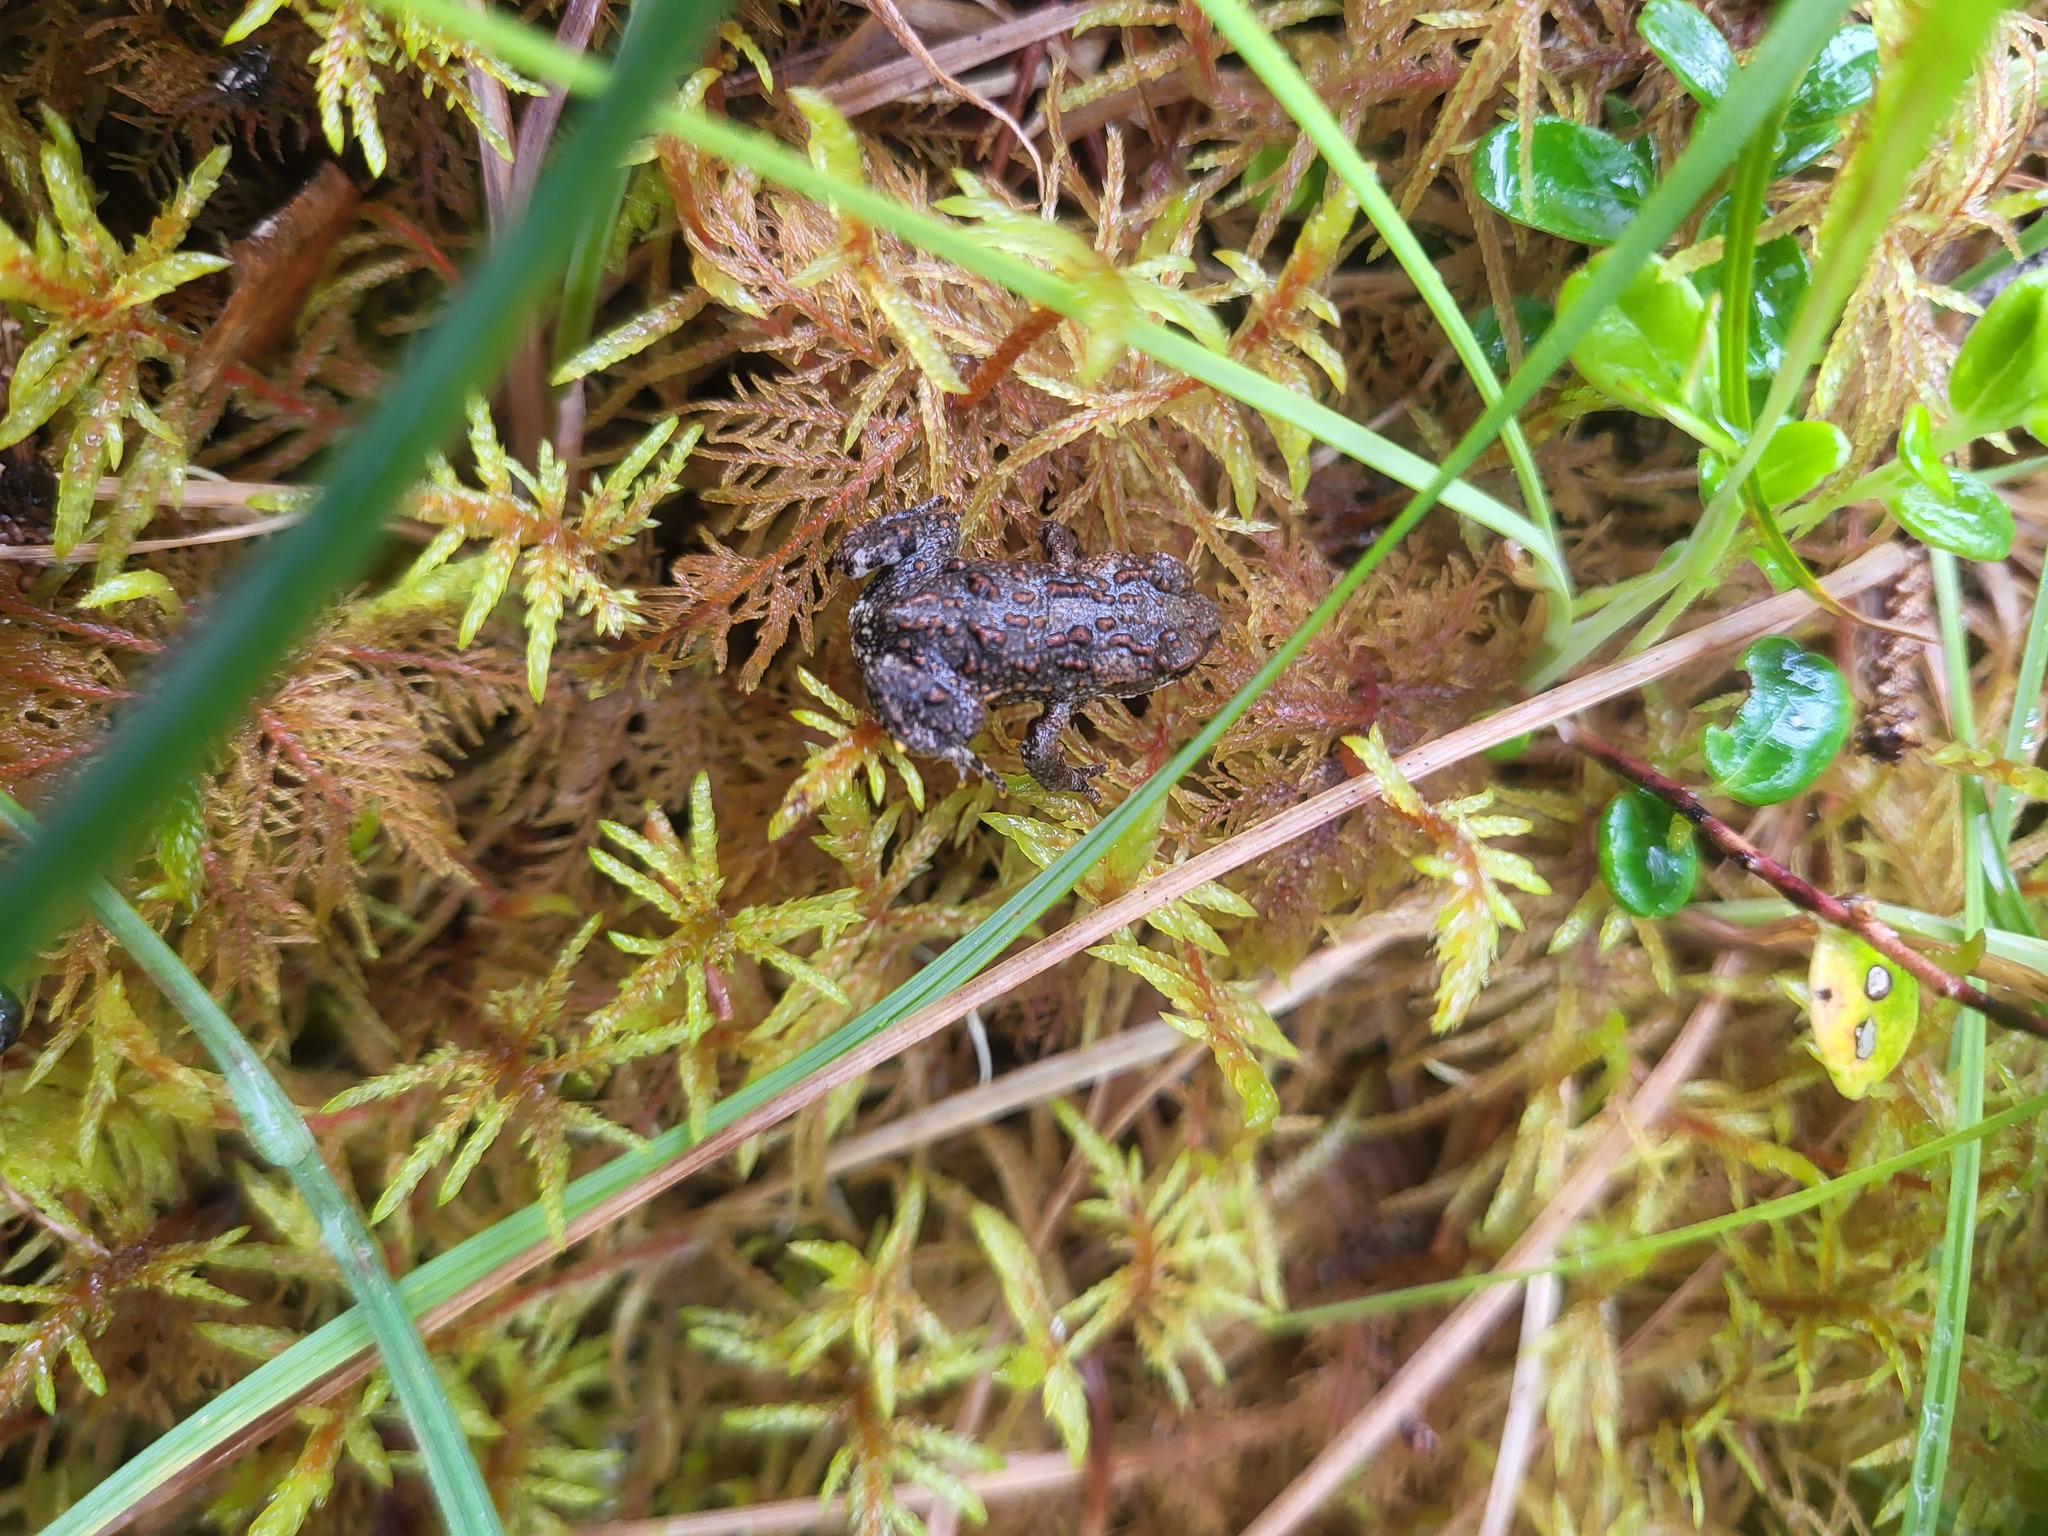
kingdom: Animalia
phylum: Chordata
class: Amphibia
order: Anura
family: Bufonidae
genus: Anaxyrus
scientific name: Anaxyrus boreas
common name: Western toad
